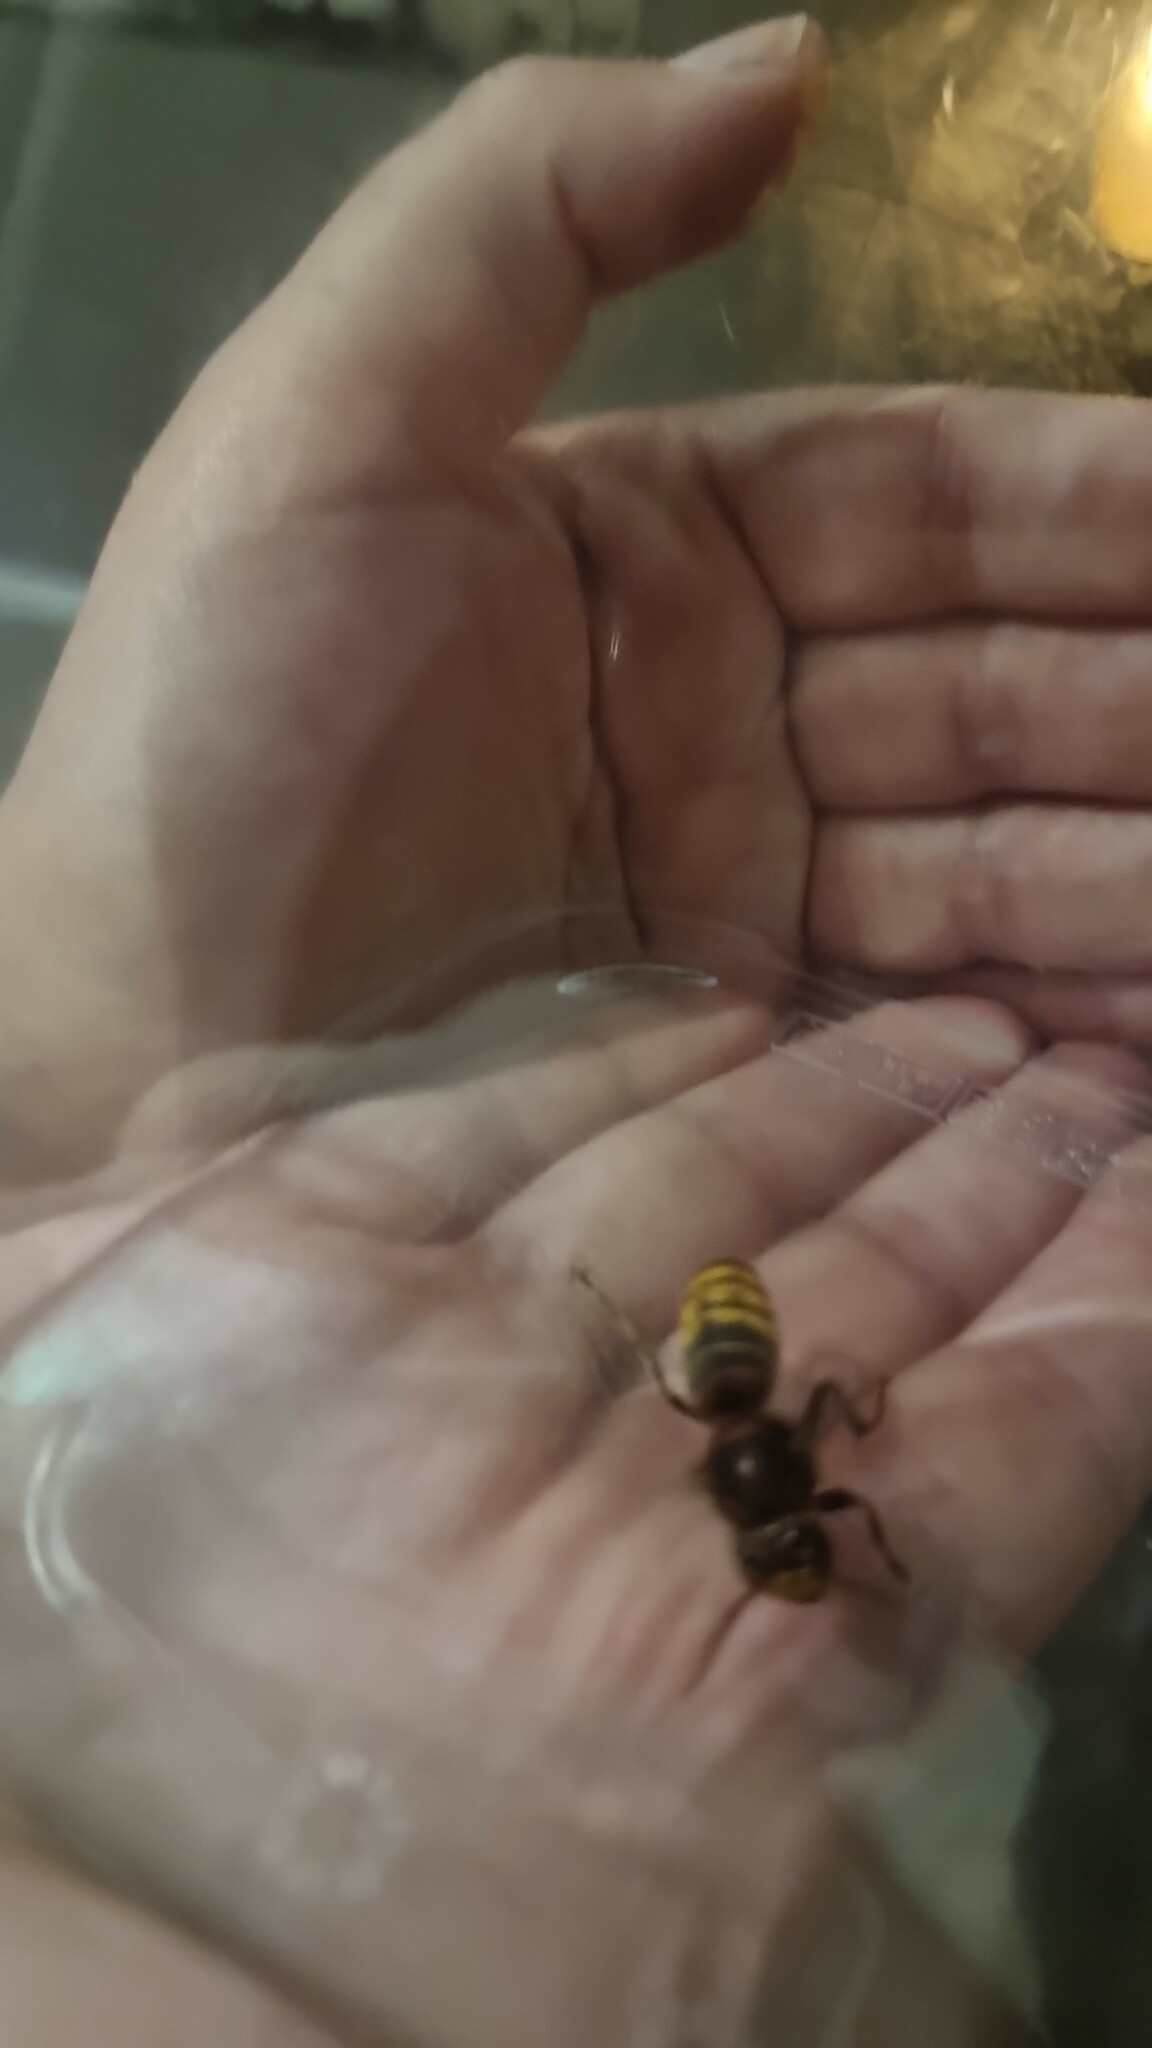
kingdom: Animalia
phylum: Arthropoda
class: Insecta
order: Hymenoptera
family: Vespidae
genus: Vespa
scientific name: Vespa crabro
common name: Hornet
